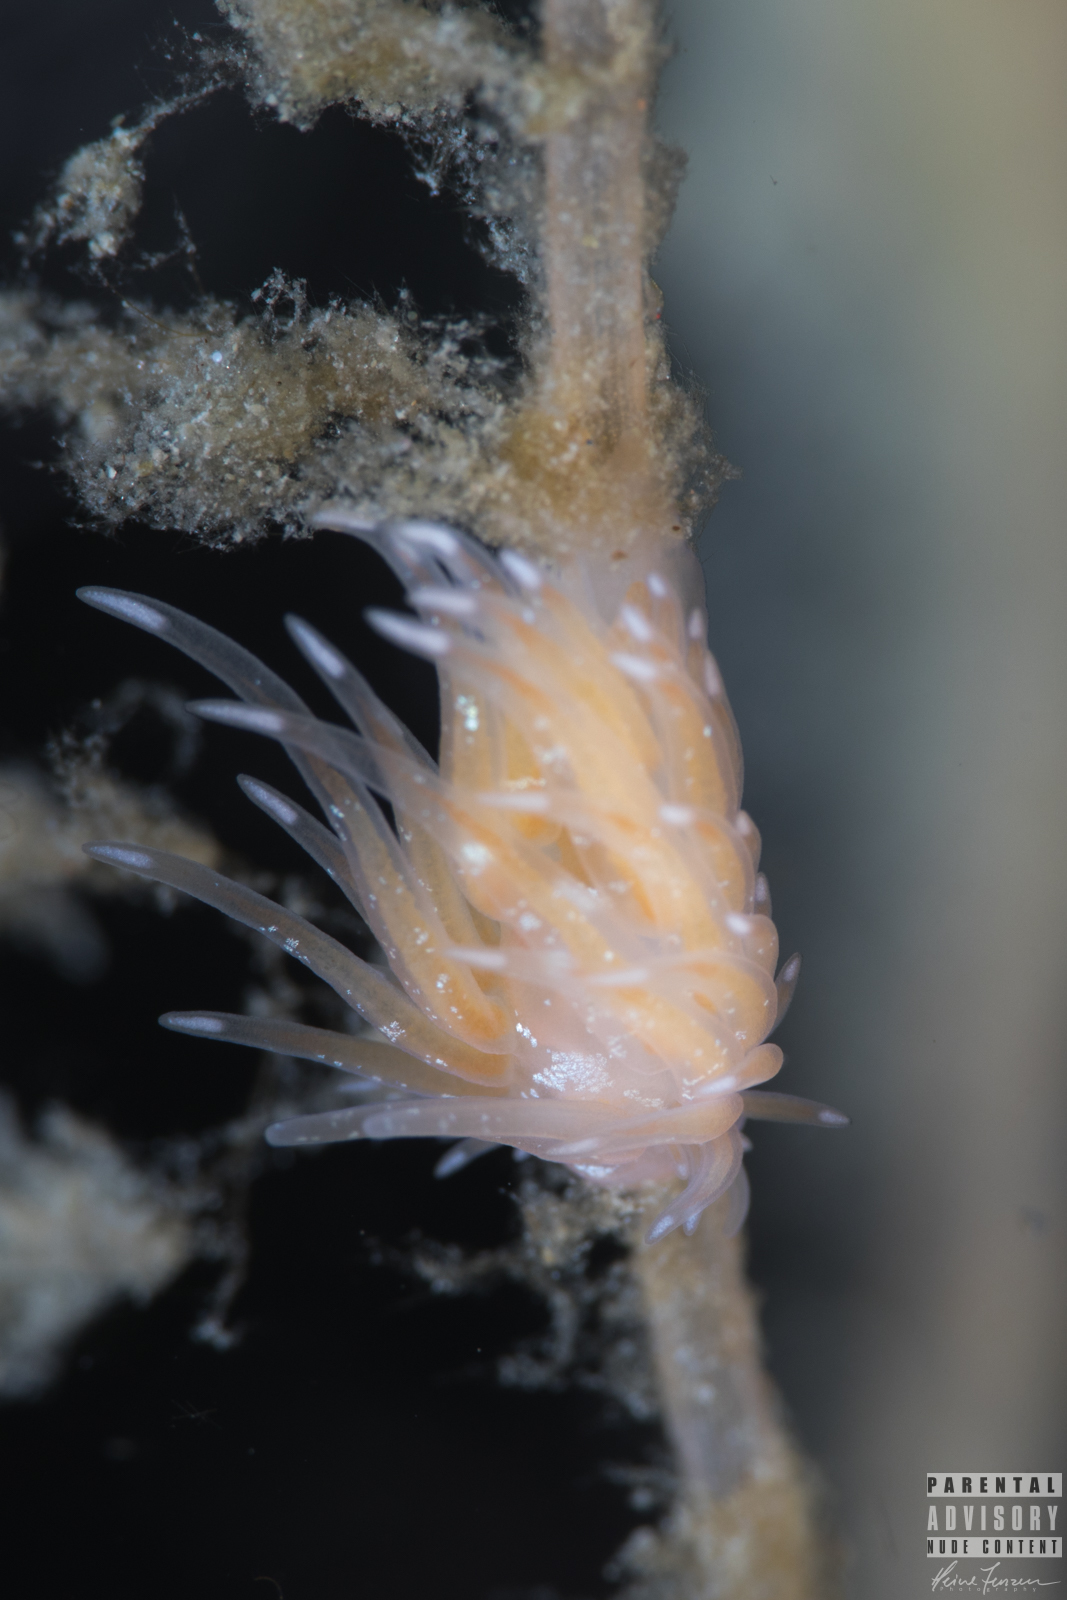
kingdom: Animalia
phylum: Mollusca
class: Gastropoda
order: Nudibranchia
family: Cumanotidae
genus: Cumanotus
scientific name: Cumanotus beaumonti
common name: Polyp aeolis
